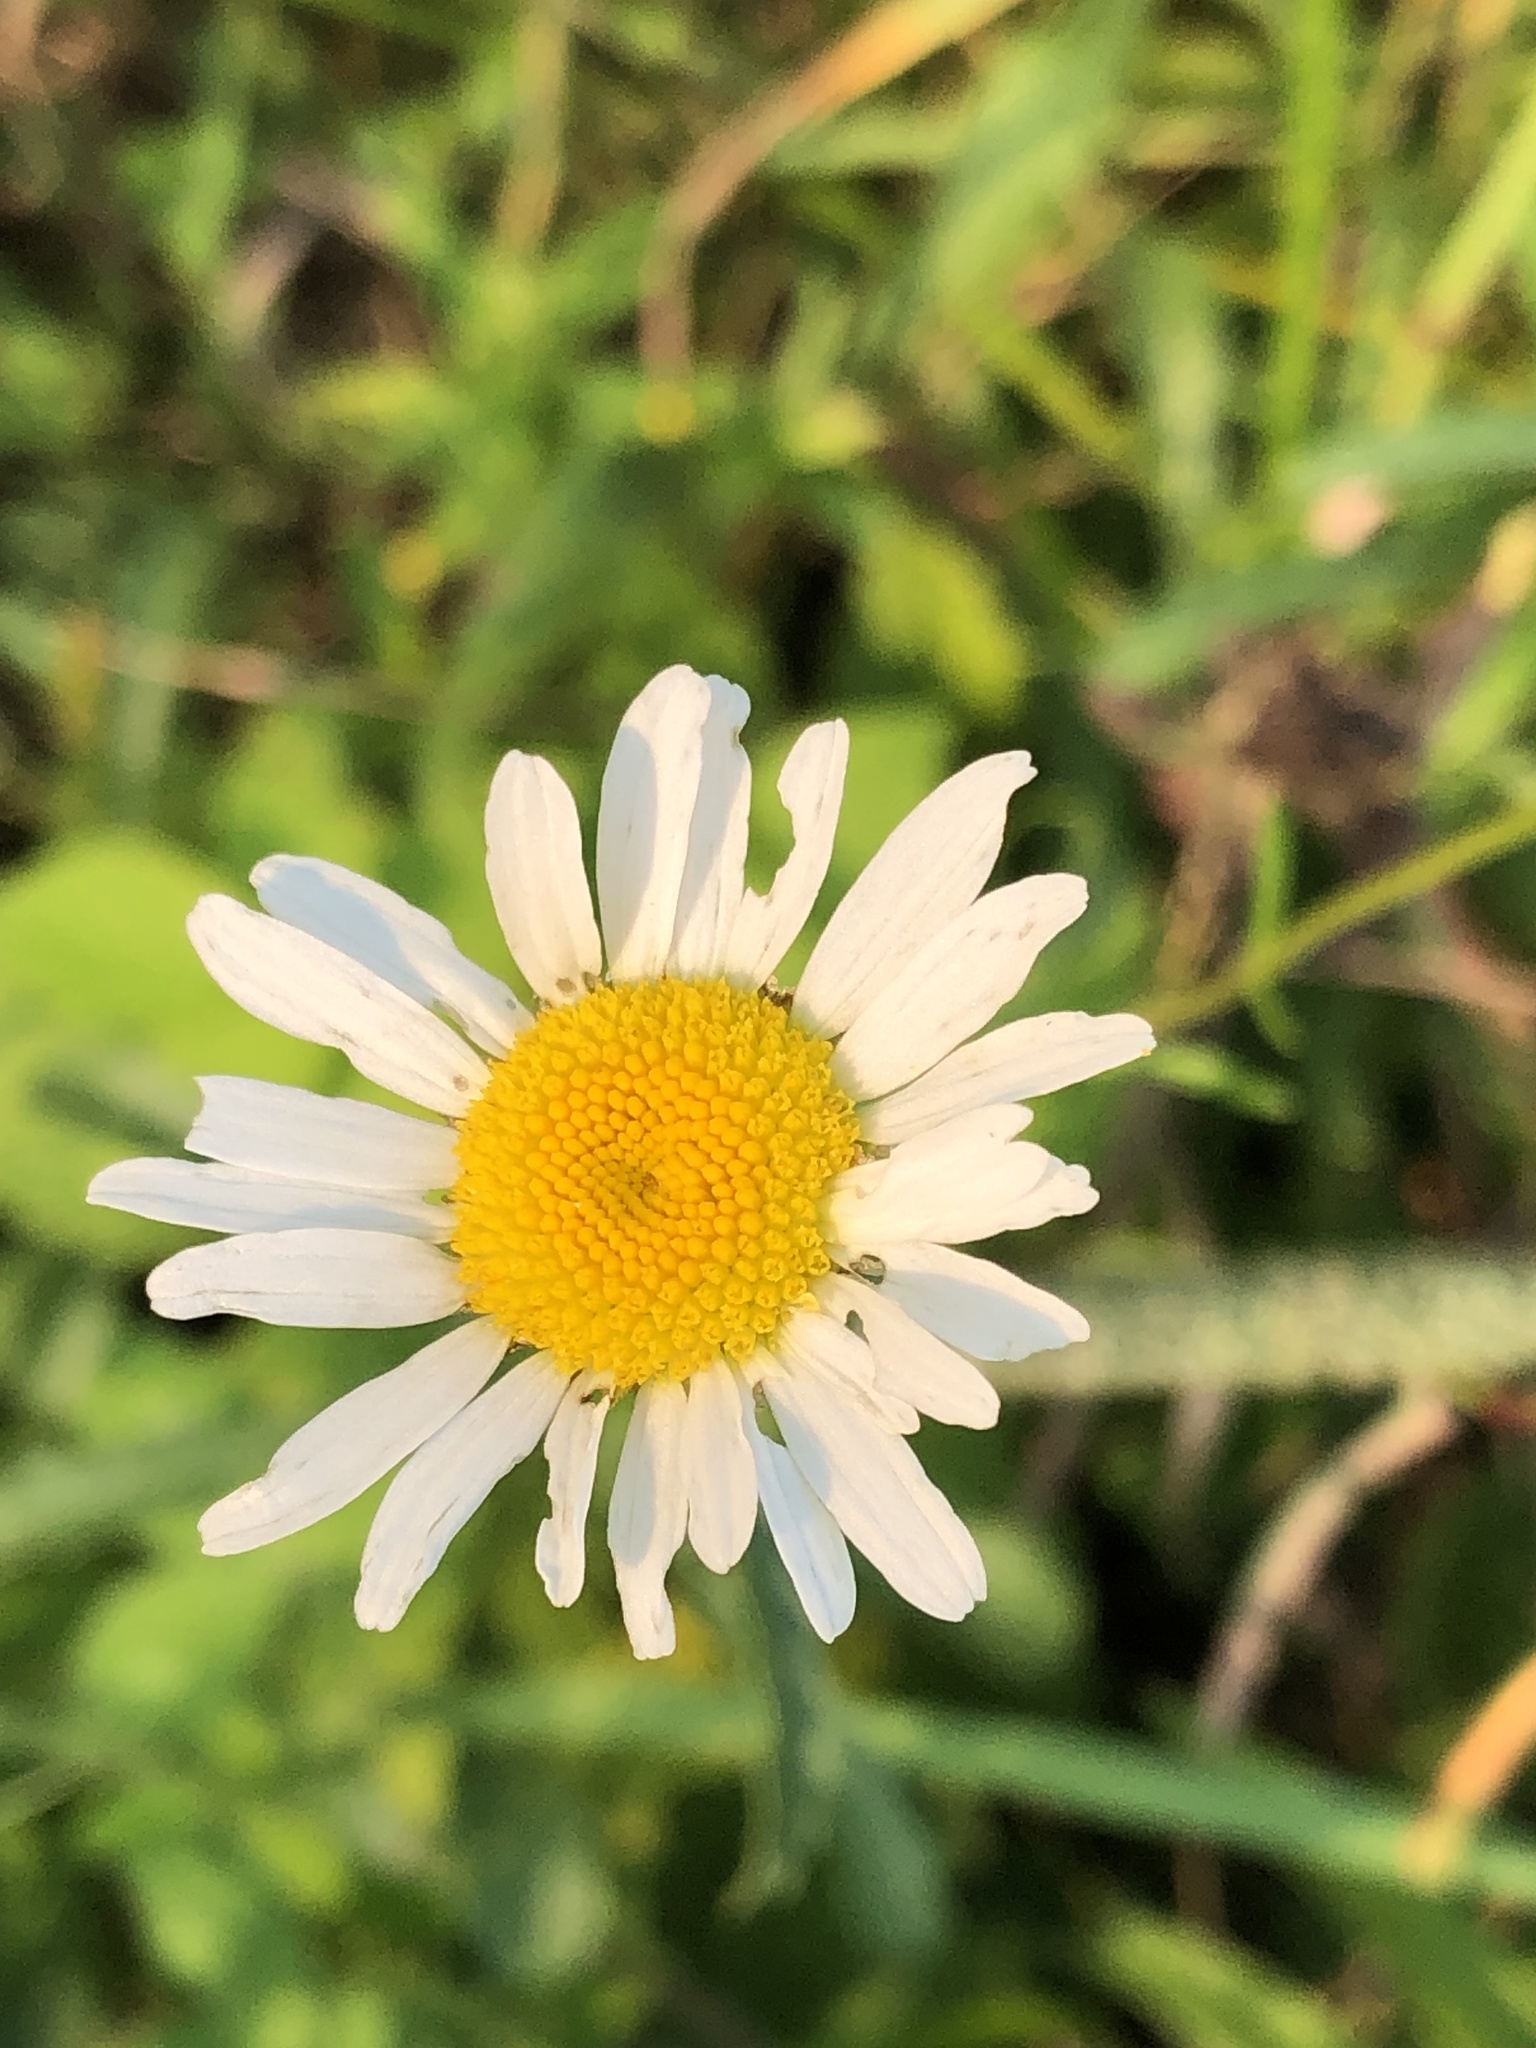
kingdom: Plantae
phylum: Tracheophyta
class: Magnoliopsida
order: Asterales
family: Asteraceae
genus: Leucanthemum
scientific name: Leucanthemum vulgare
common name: Oxeye daisy
